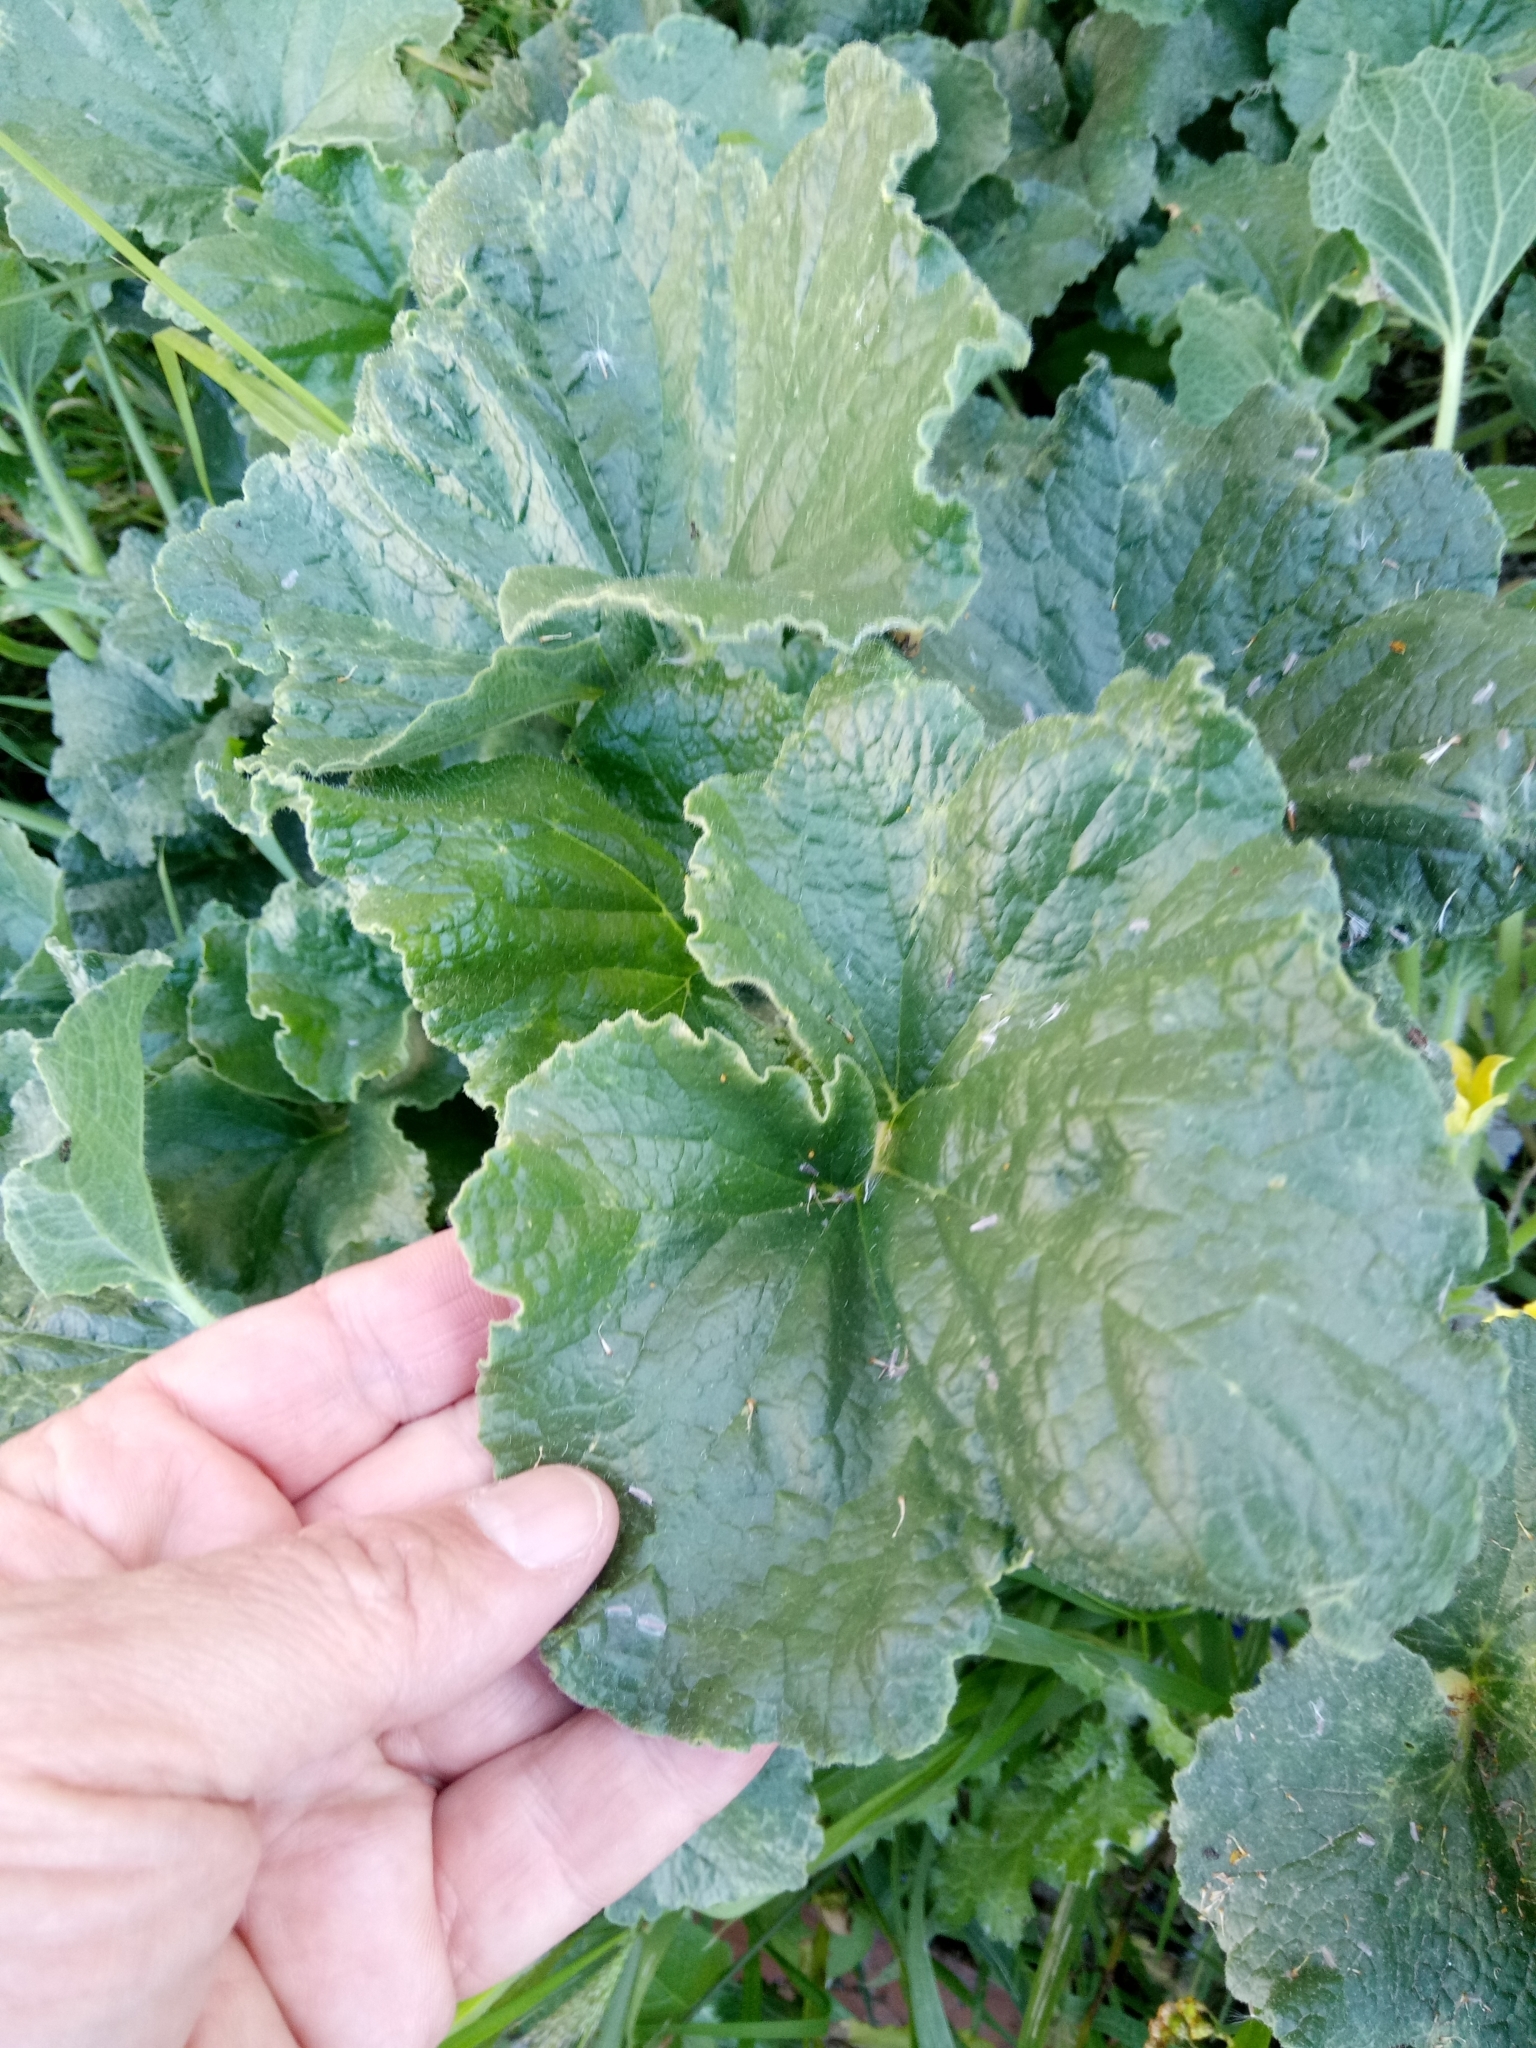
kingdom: Plantae
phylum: Tracheophyta
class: Magnoliopsida
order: Cucurbitales
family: Cucurbitaceae
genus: Ecballium
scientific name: Ecballium elaterium
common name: Squirting cucumber
